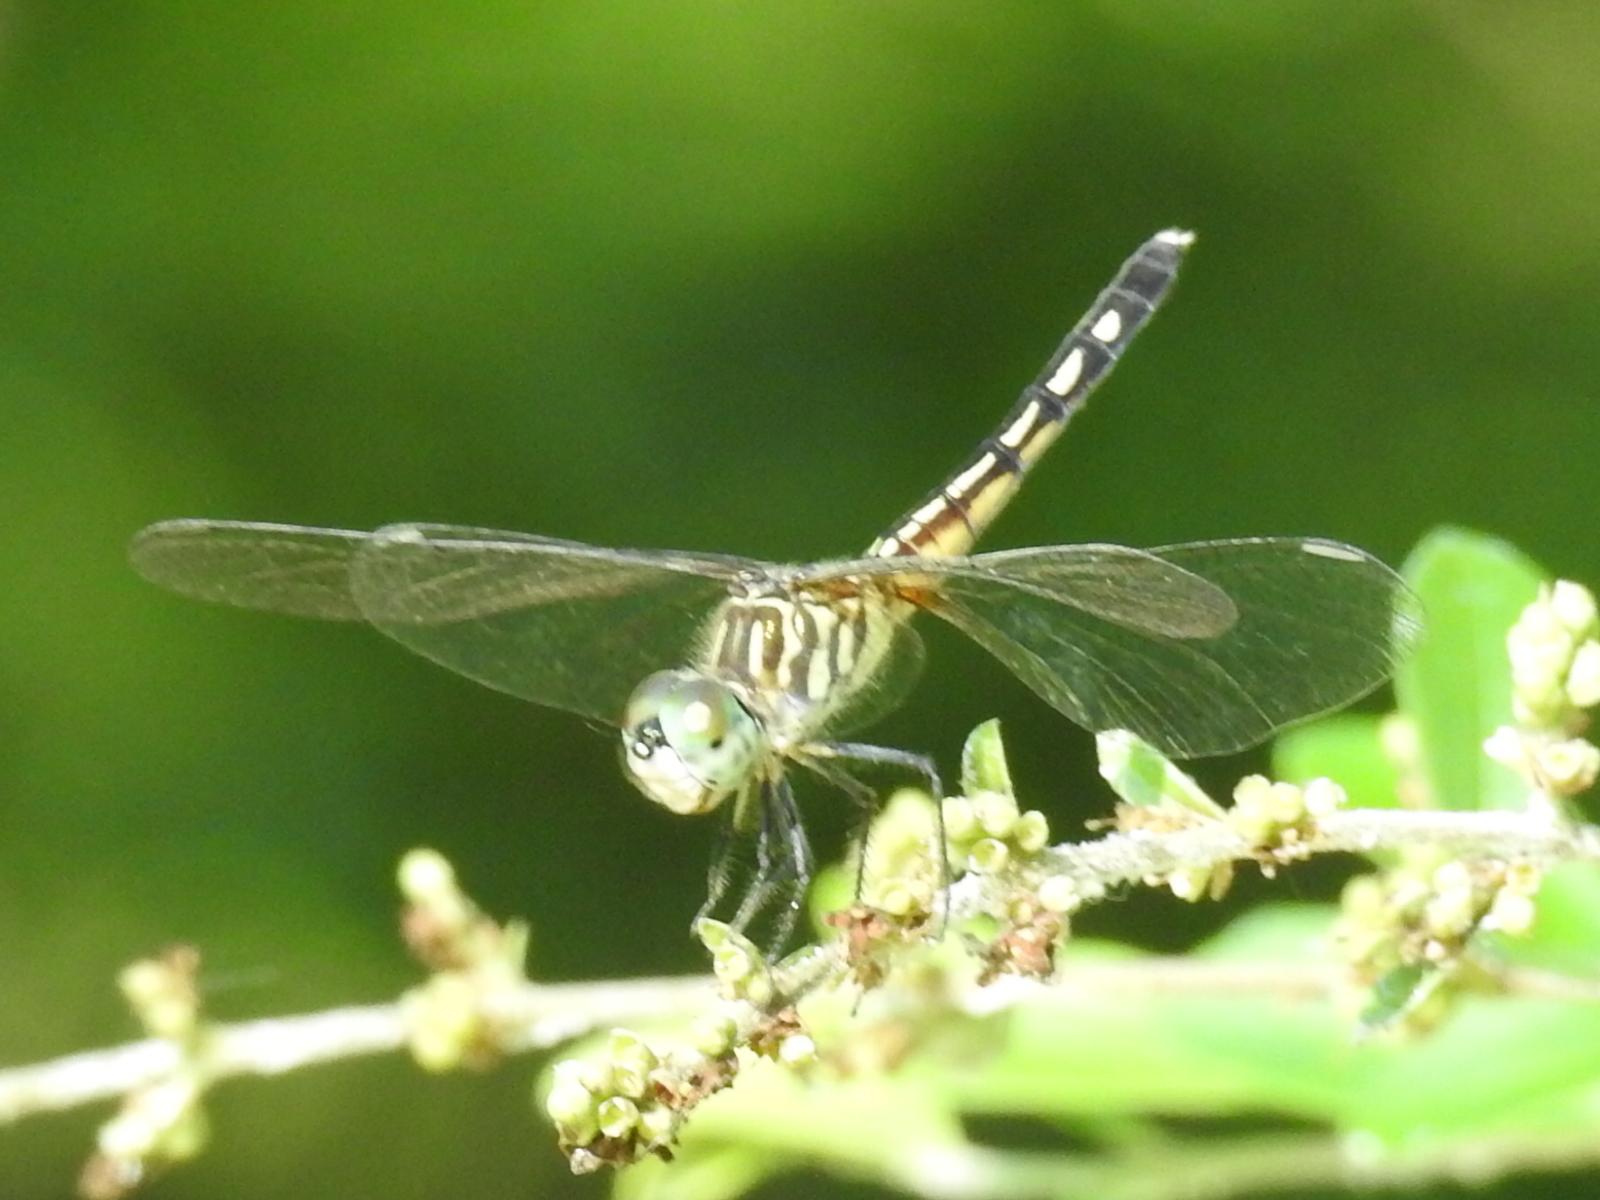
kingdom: Animalia
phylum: Arthropoda
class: Insecta
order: Odonata
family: Libellulidae
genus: Pachydiplax
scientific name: Pachydiplax longipennis
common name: Blue dasher
